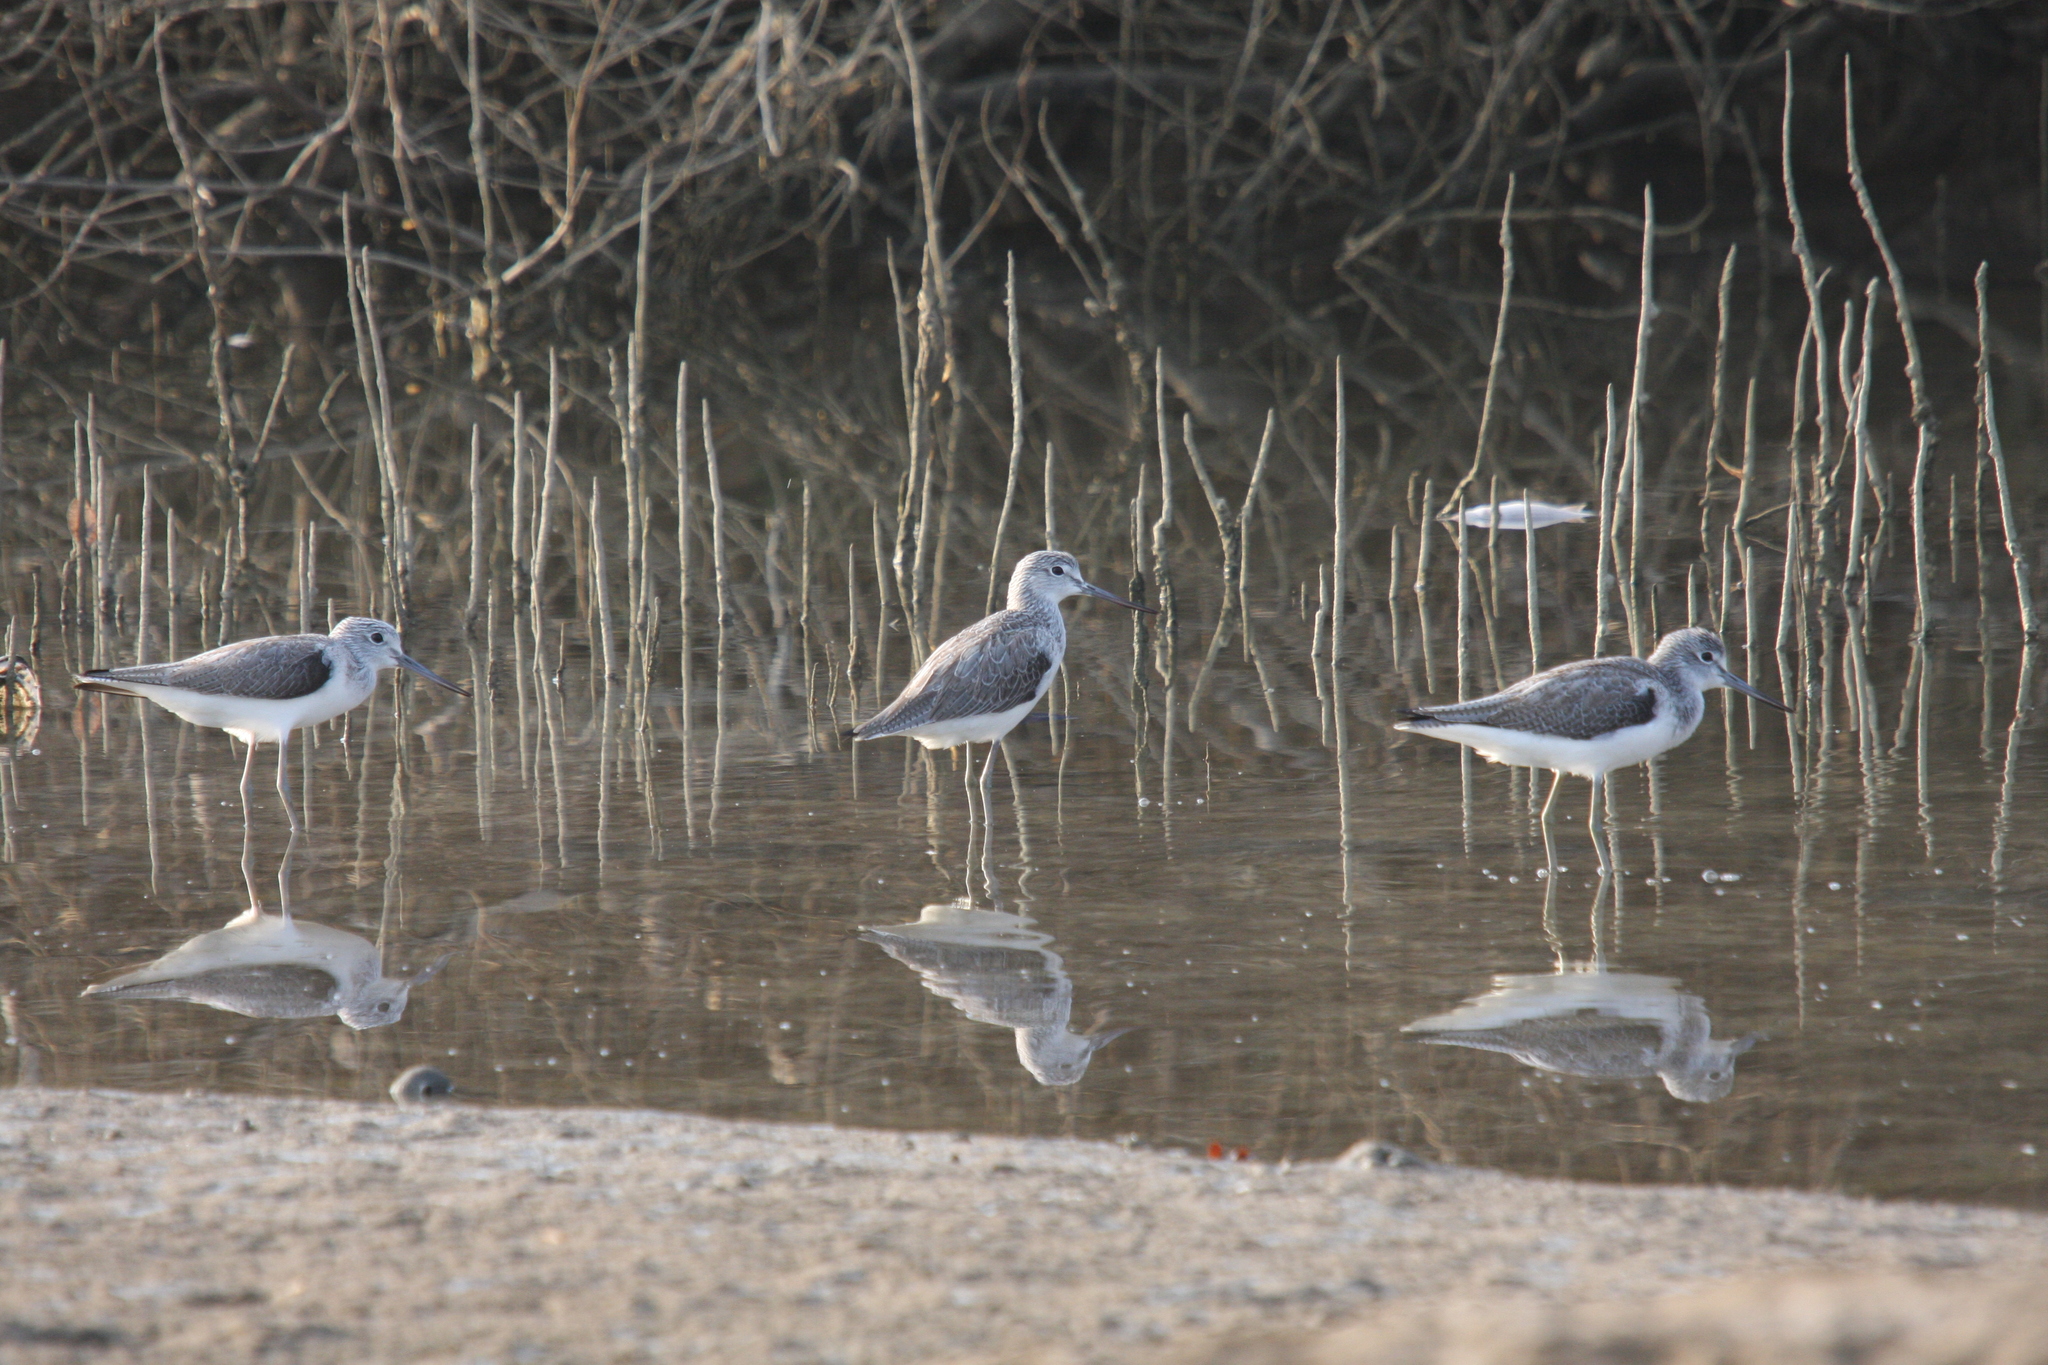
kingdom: Animalia
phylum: Chordata
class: Aves
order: Charadriiformes
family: Scolopacidae
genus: Tringa
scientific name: Tringa nebularia
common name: Common greenshank
